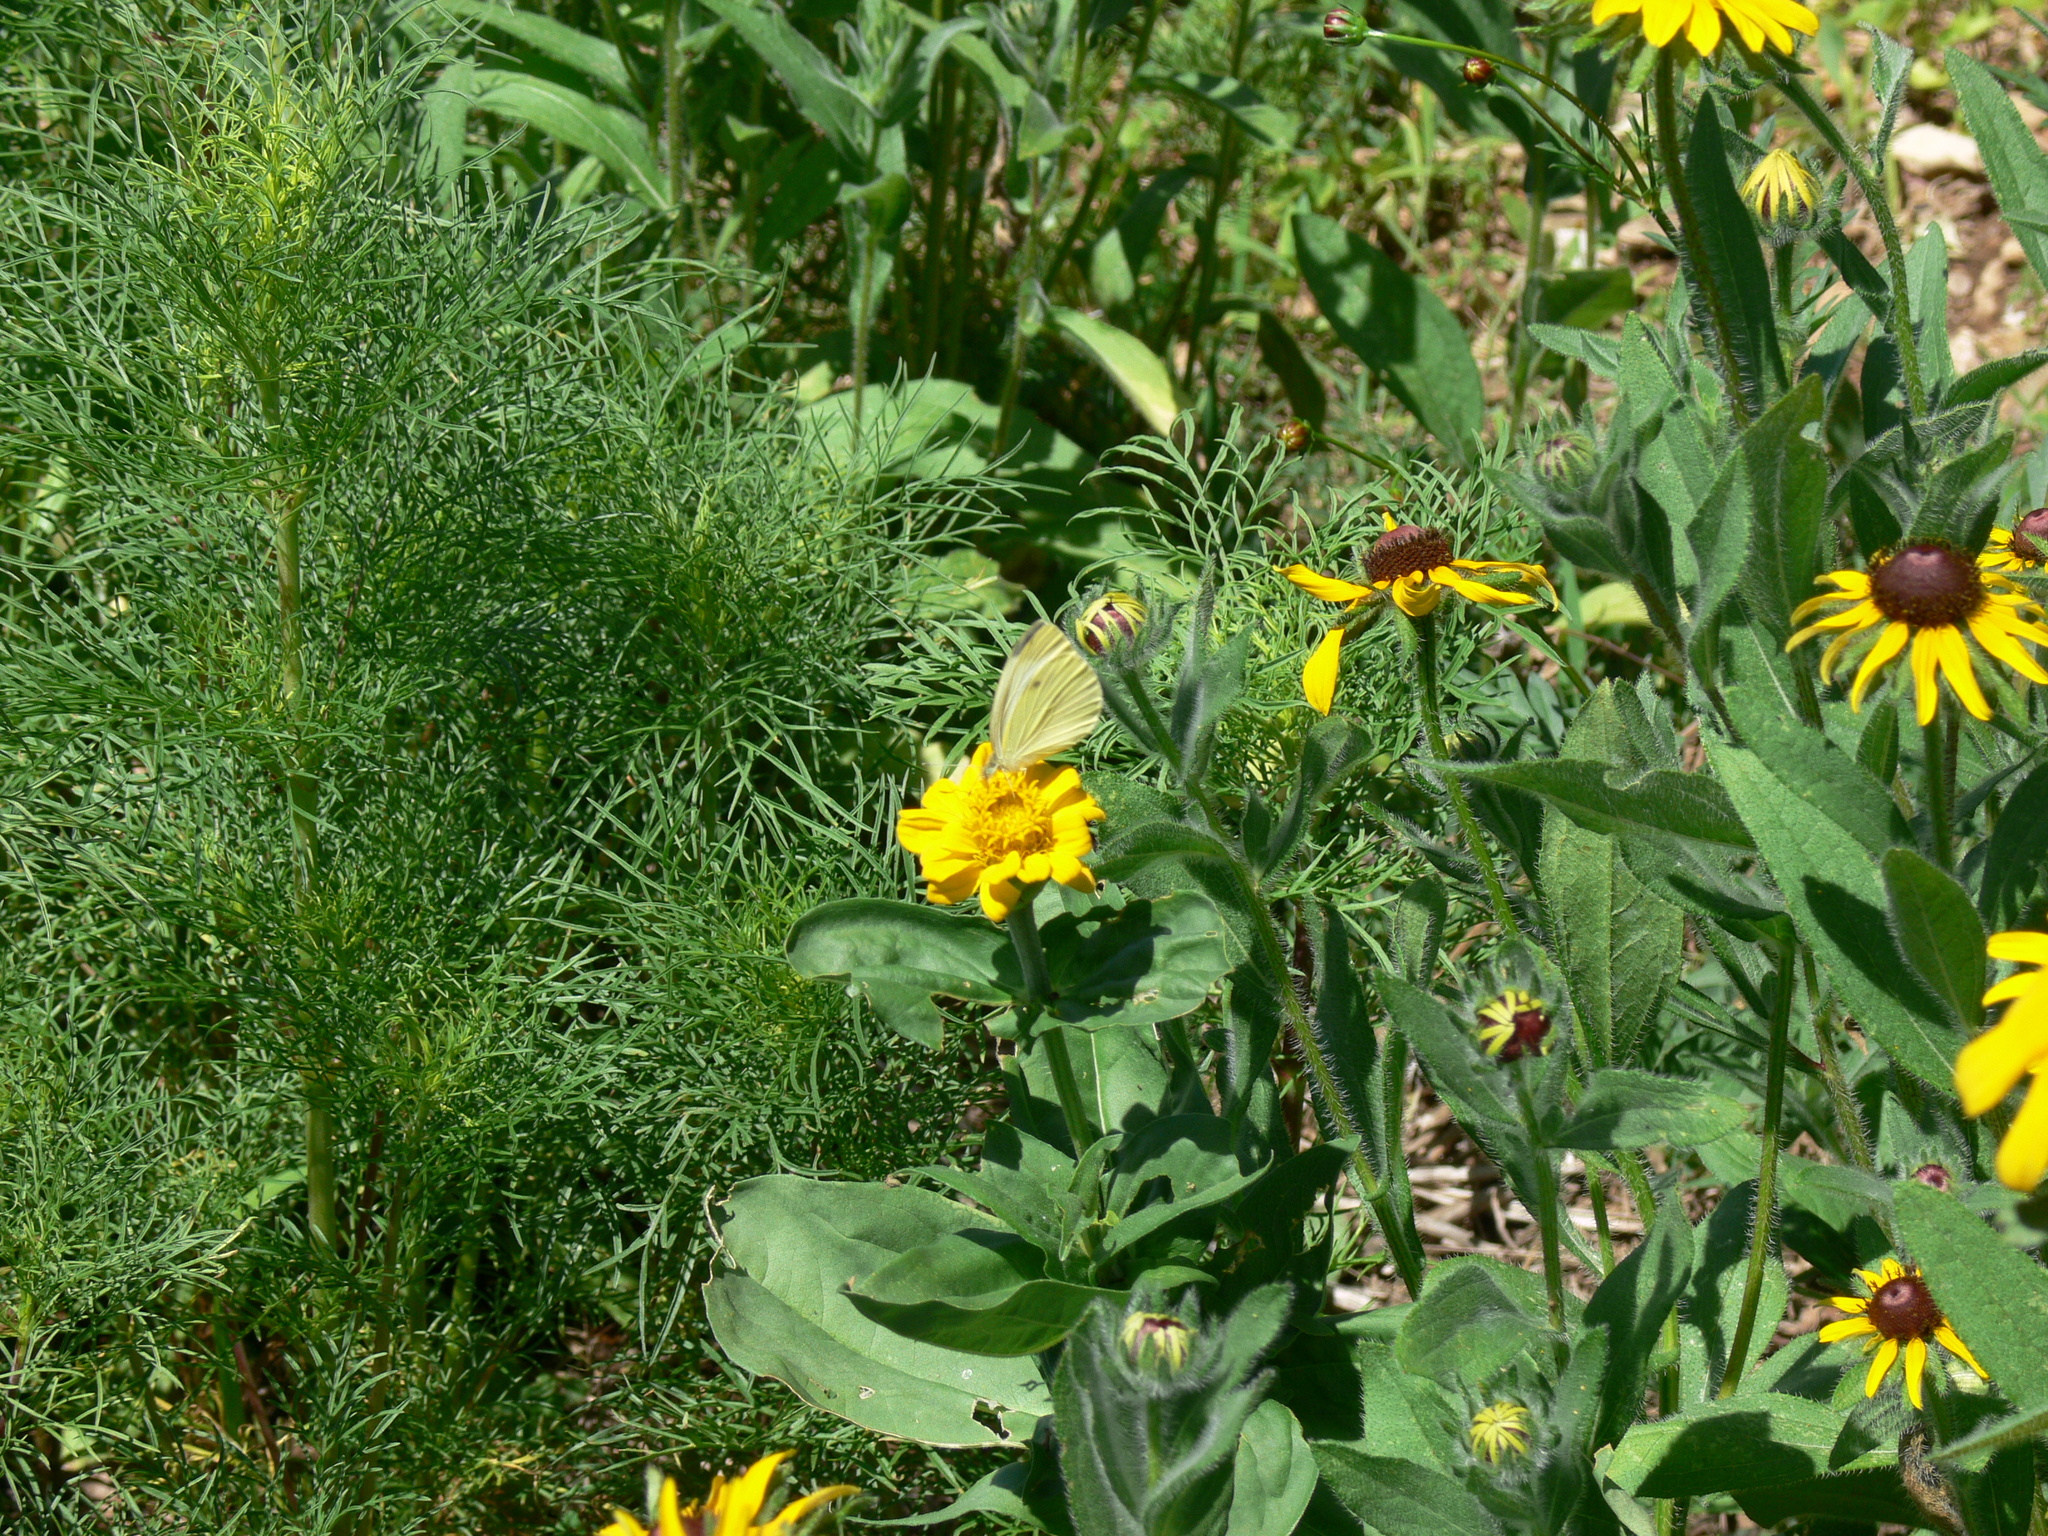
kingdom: Animalia
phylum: Arthropoda
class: Insecta
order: Lepidoptera
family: Pieridae
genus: Pieris
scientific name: Pieris rapae
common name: Small white
